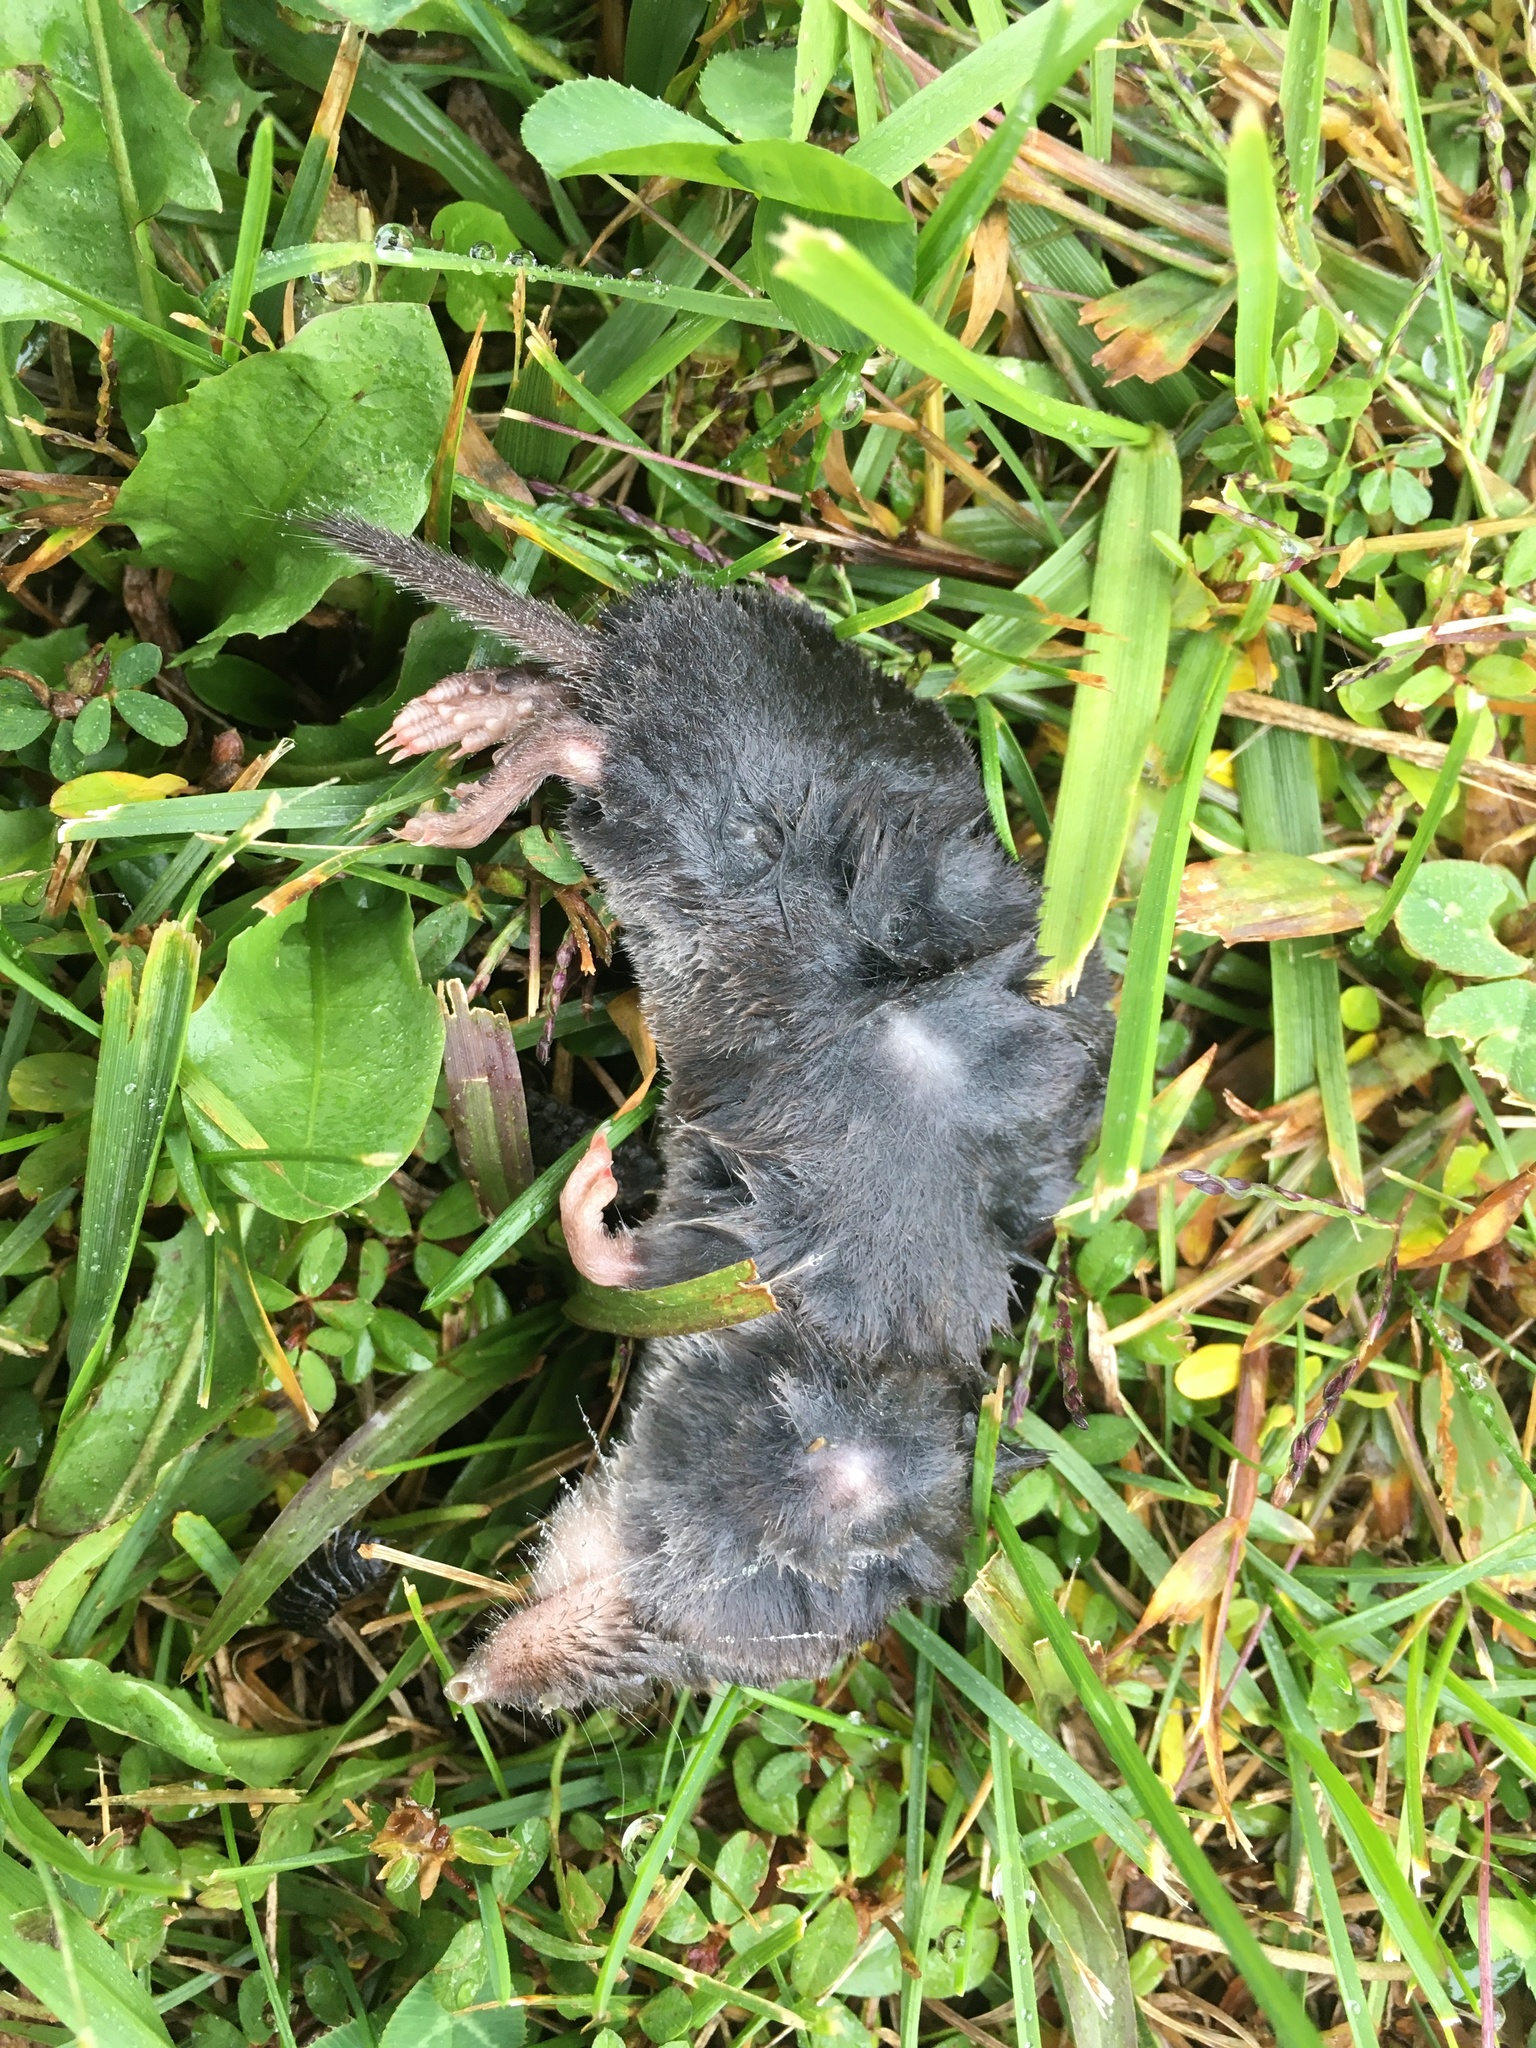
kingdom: Animalia
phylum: Chordata
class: Mammalia
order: Soricomorpha
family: Soricidae
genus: Blarina
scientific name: Blarina brevicauda
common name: Northern short-tailed shrew
